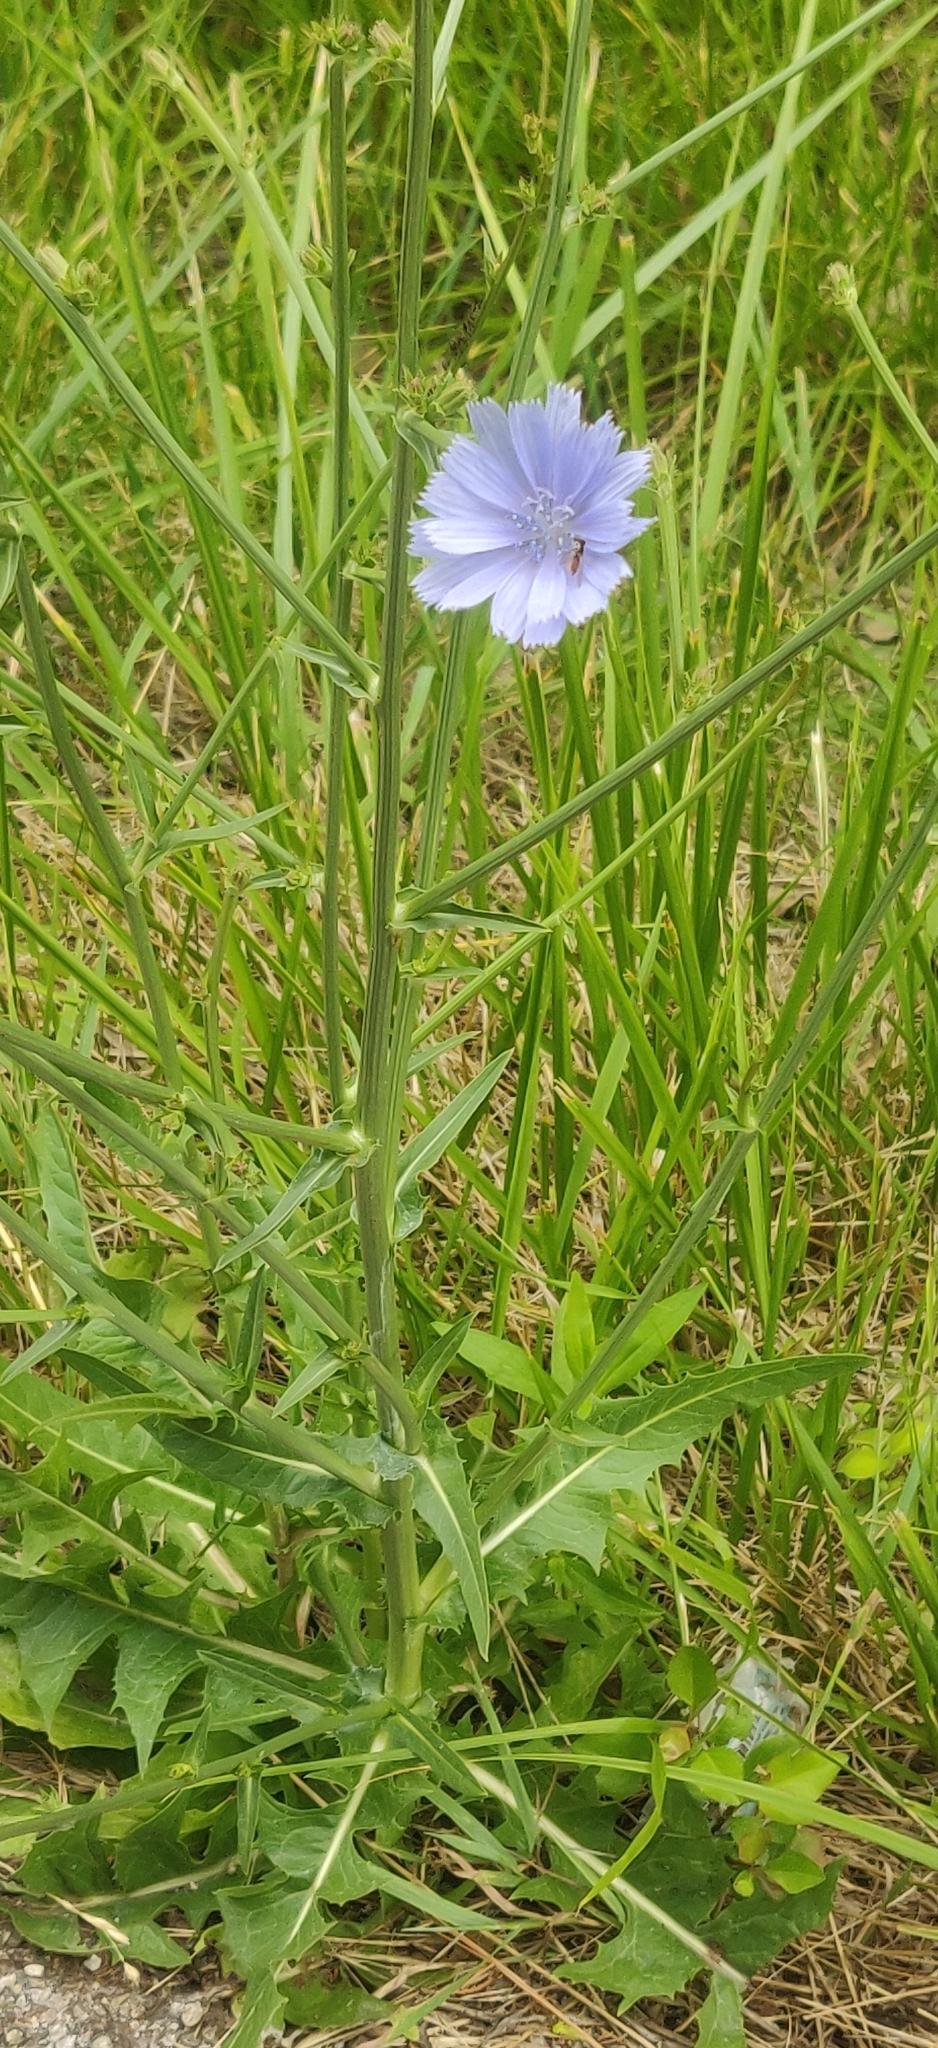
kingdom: Plantae
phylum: Tracheophyta
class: Magnoliopsida
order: Asterales
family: Asteraceae
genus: Cichorium
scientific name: Cichorium intybus
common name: Chicory
